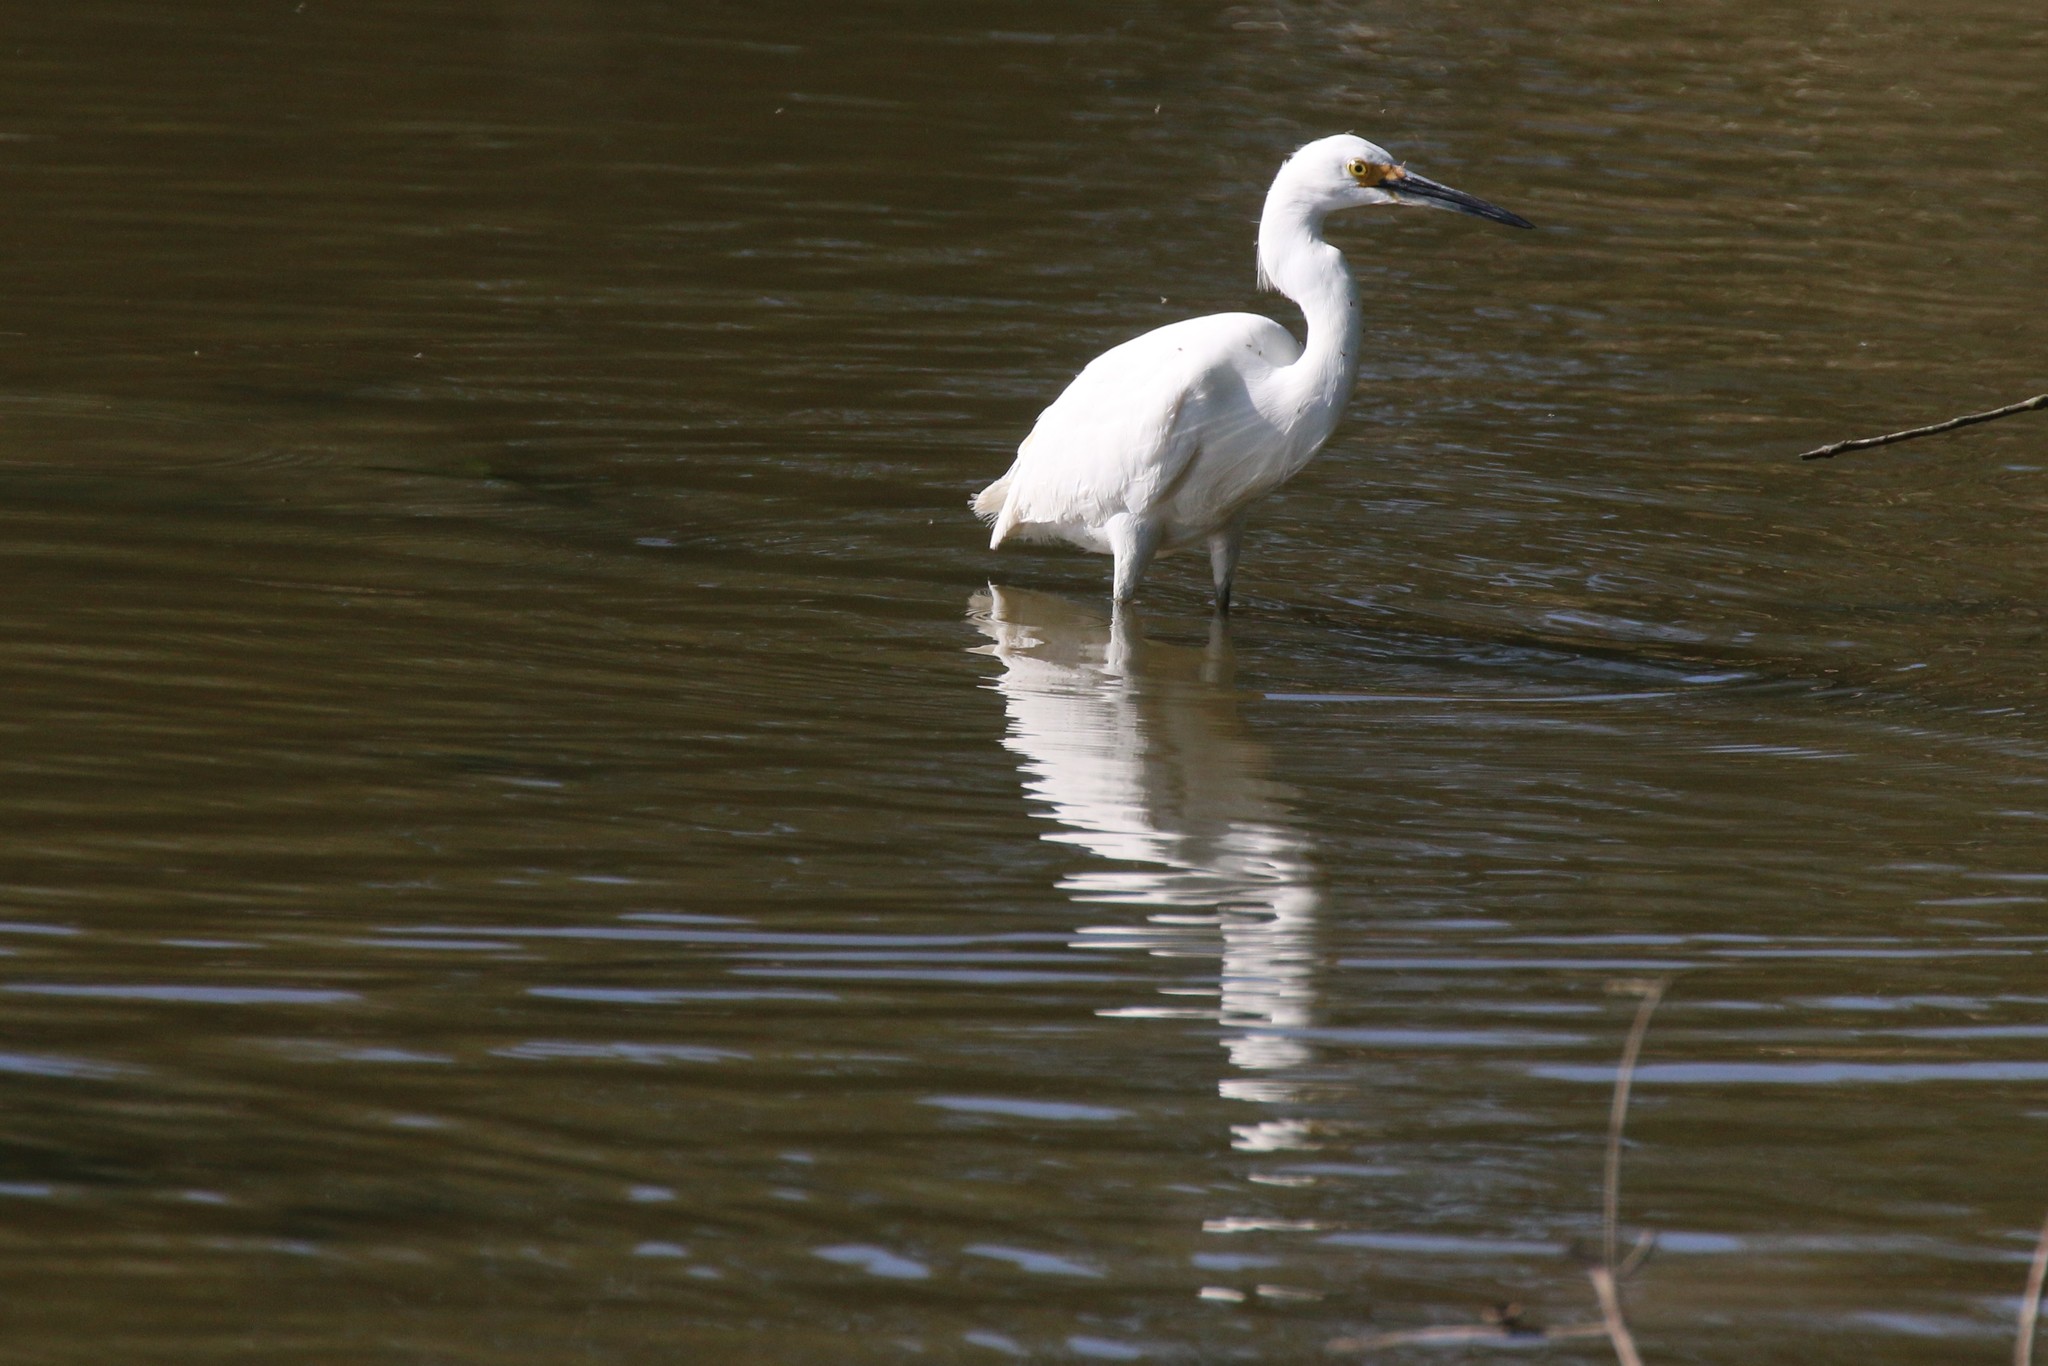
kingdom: Animalia
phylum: Chordata
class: Aves
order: Pelecaniformes
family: Ardeidae
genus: Egretta
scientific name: Egretta thula
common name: Snowy egret
